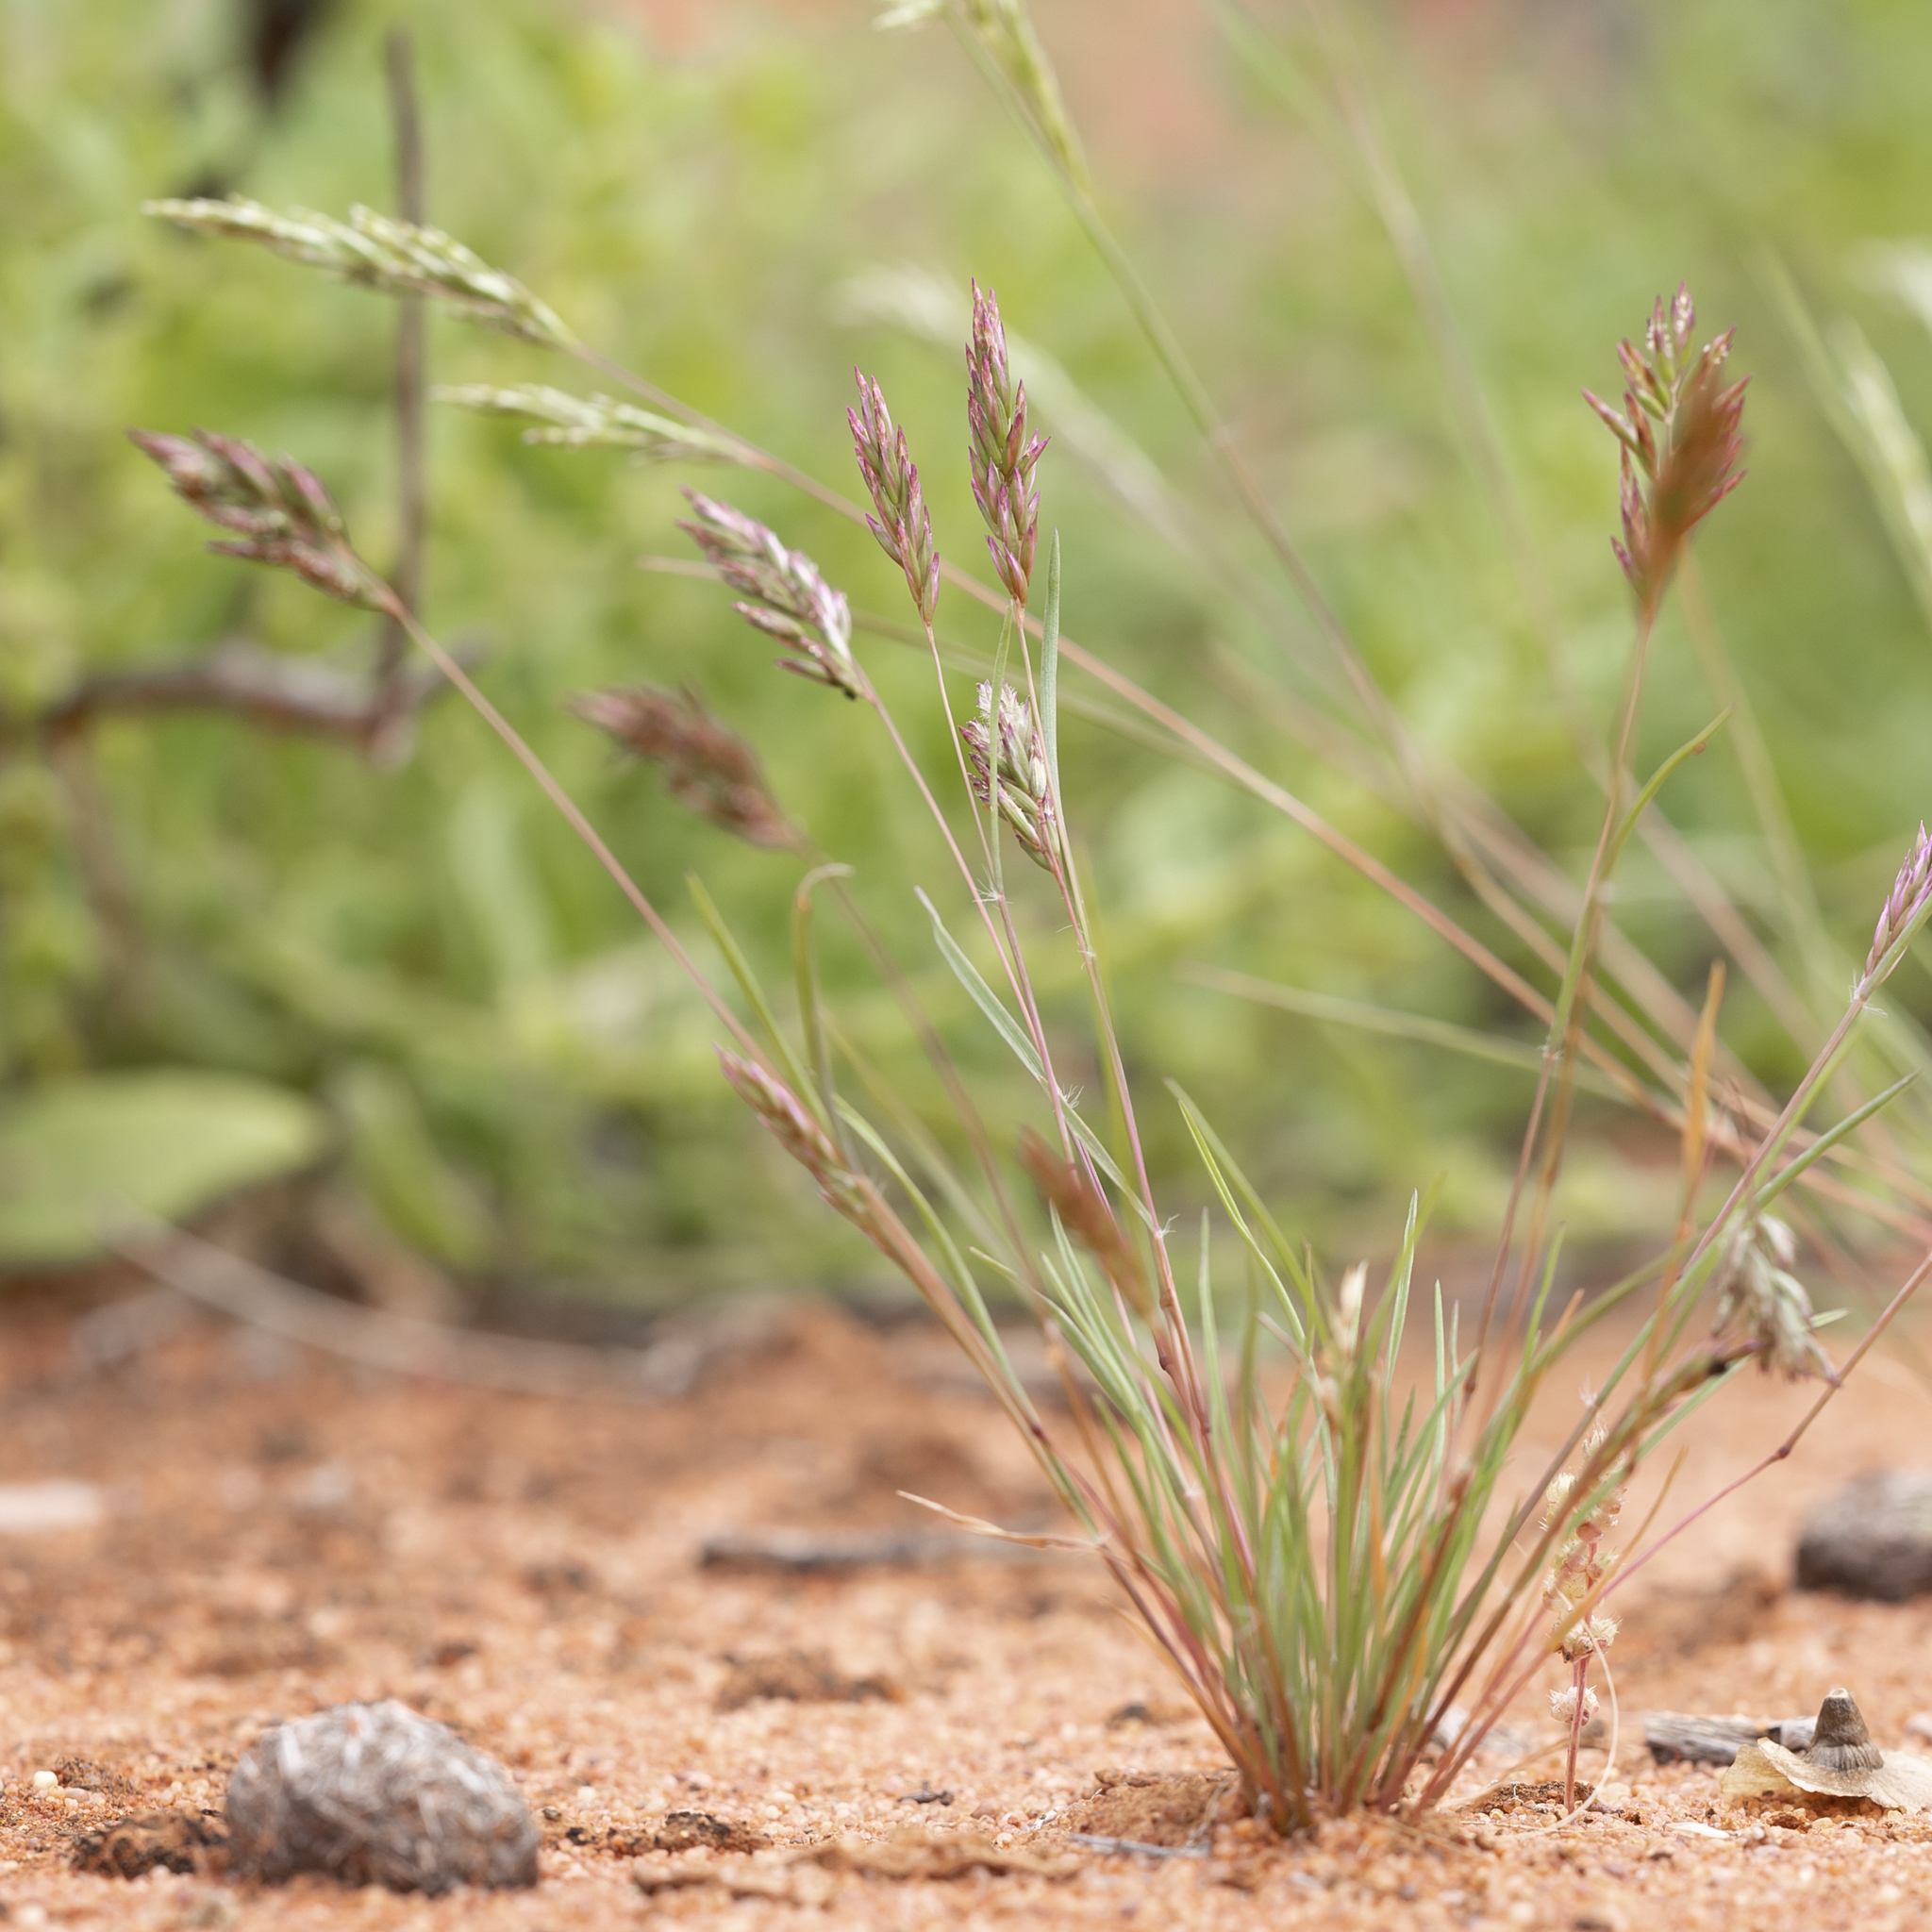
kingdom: Plantae
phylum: Tracheophyta
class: Liliopsida
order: Poales
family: Poaceae
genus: Schismus
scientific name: Schismus barbatus
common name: Kelch-grass
